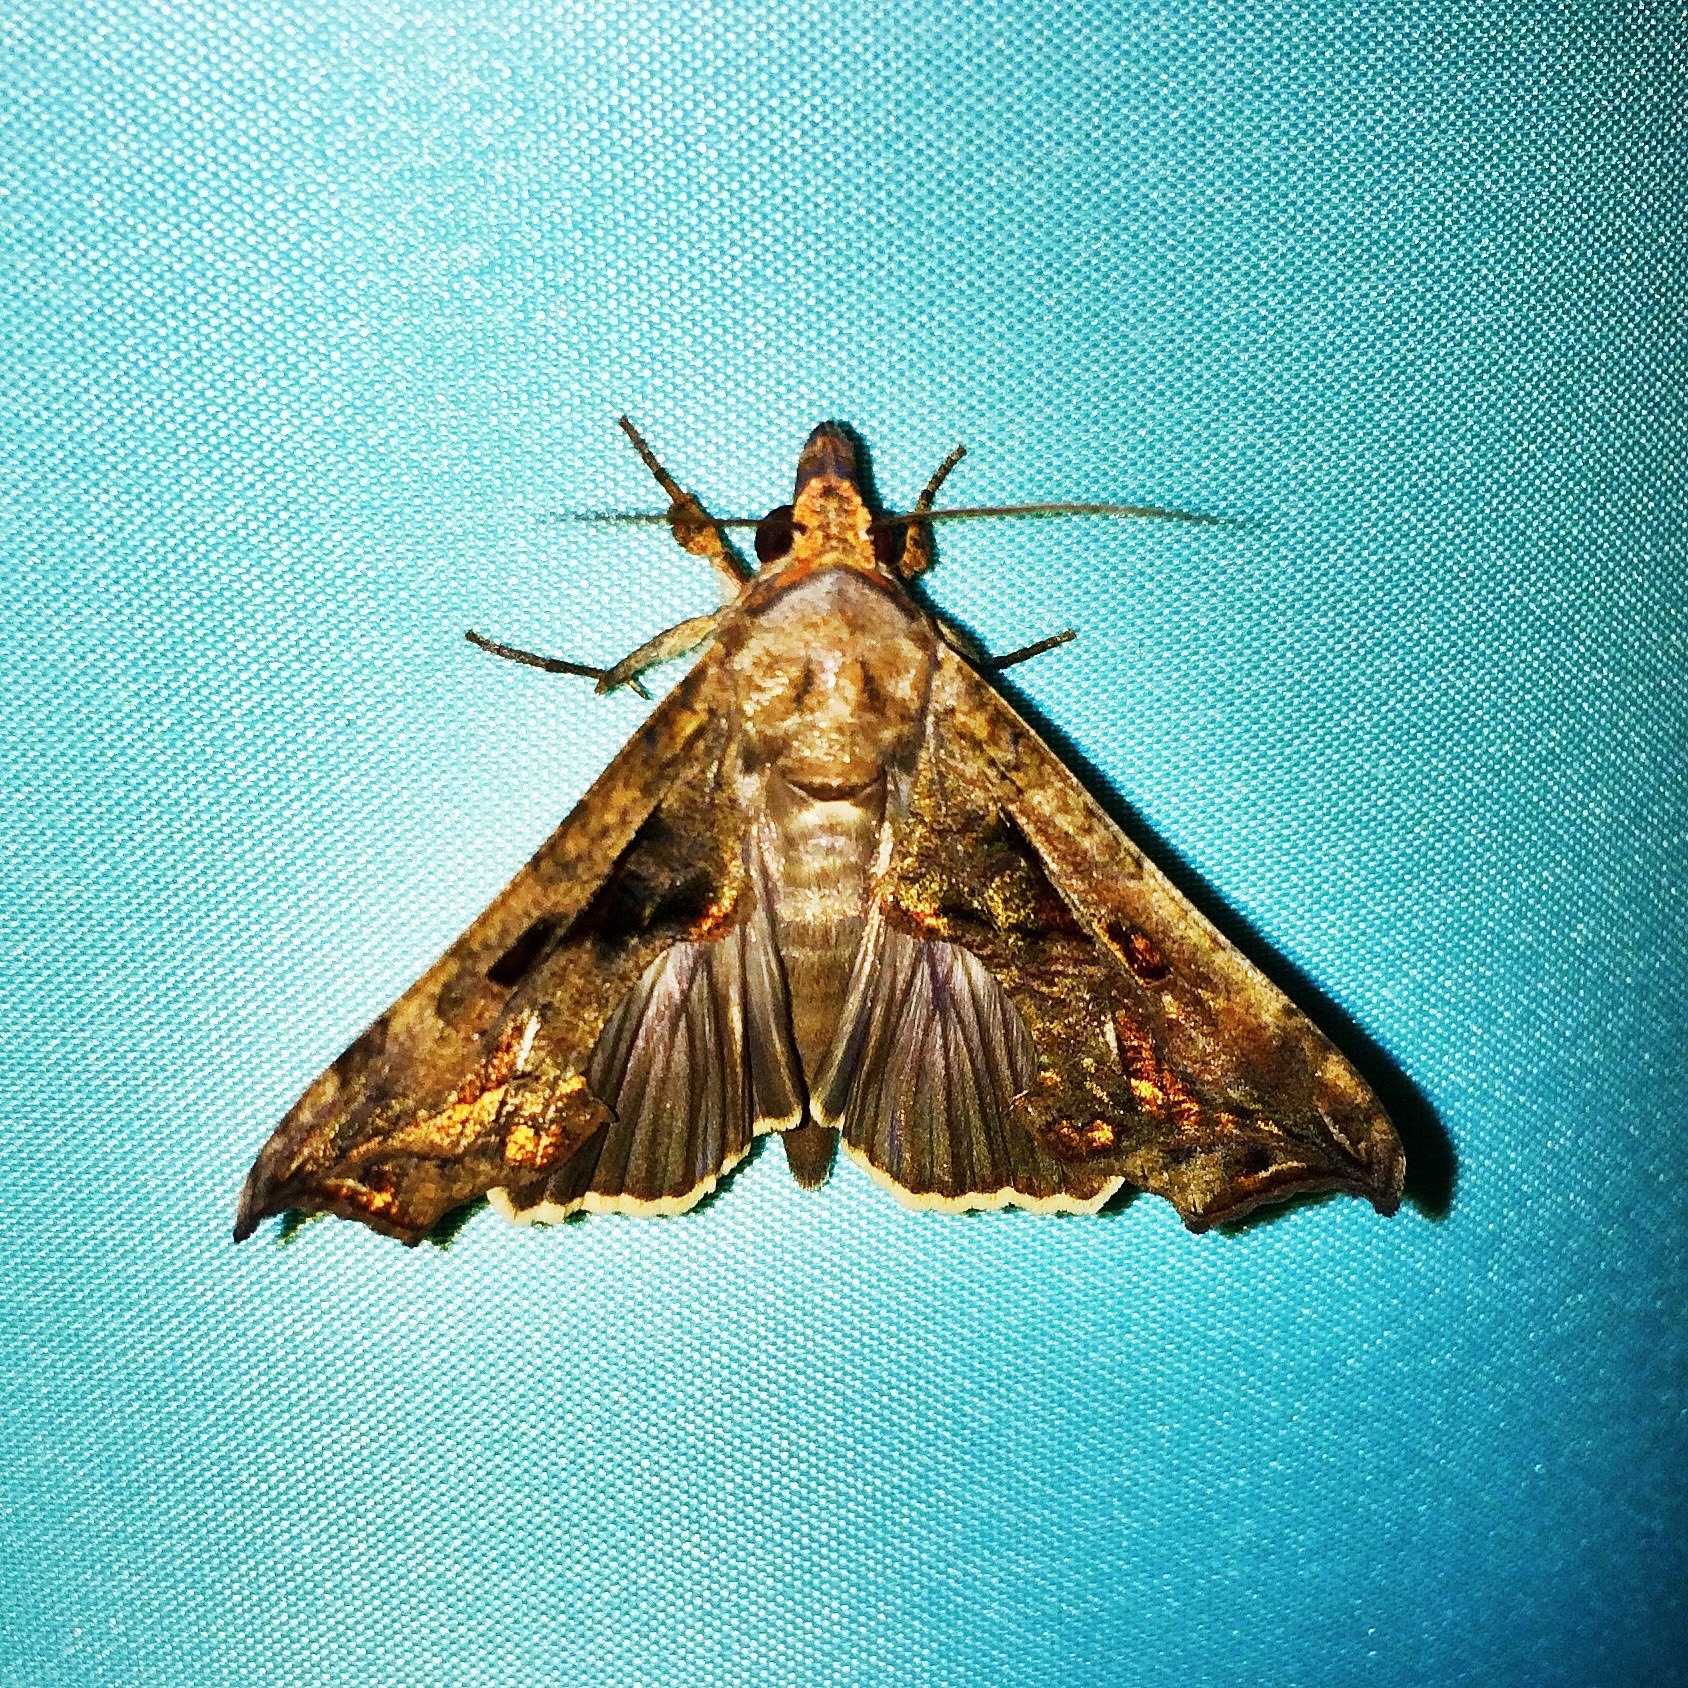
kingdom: Animalia
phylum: Arthropoda
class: Insecta
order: Lepidoptera
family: Erebidae
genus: Oraesia
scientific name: Oraesia provocans
